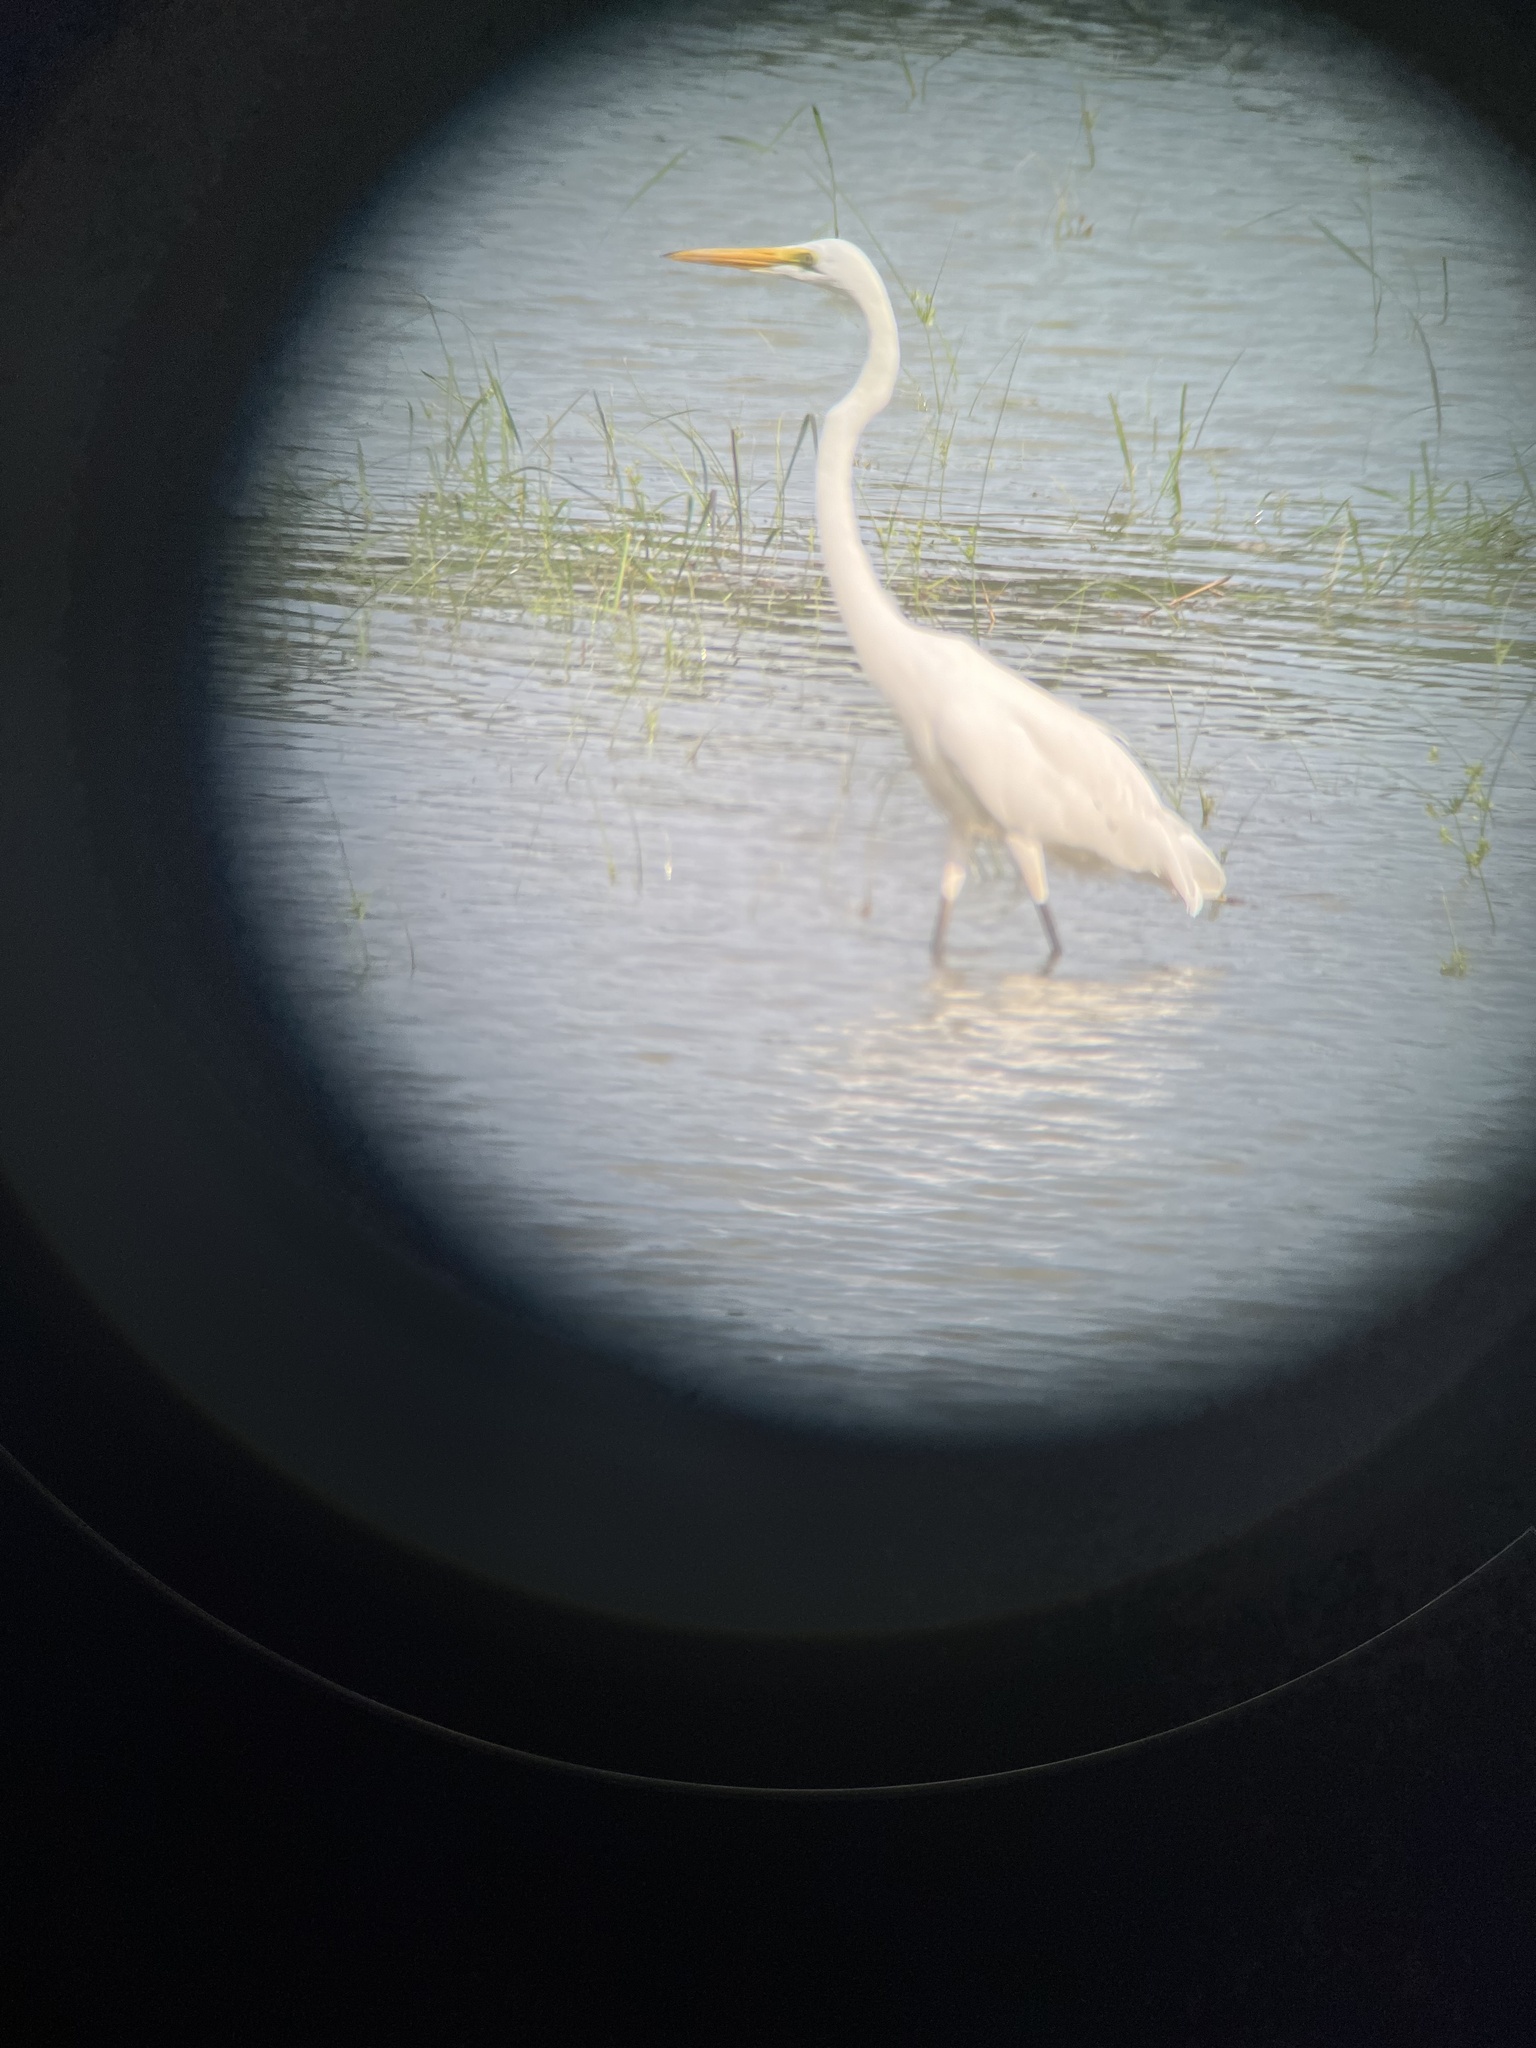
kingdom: Animalia
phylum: Chordata
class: Aves
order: Pelecaniformes
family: Ardeidae
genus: Ardea
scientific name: Ardea alba
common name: Great egret
